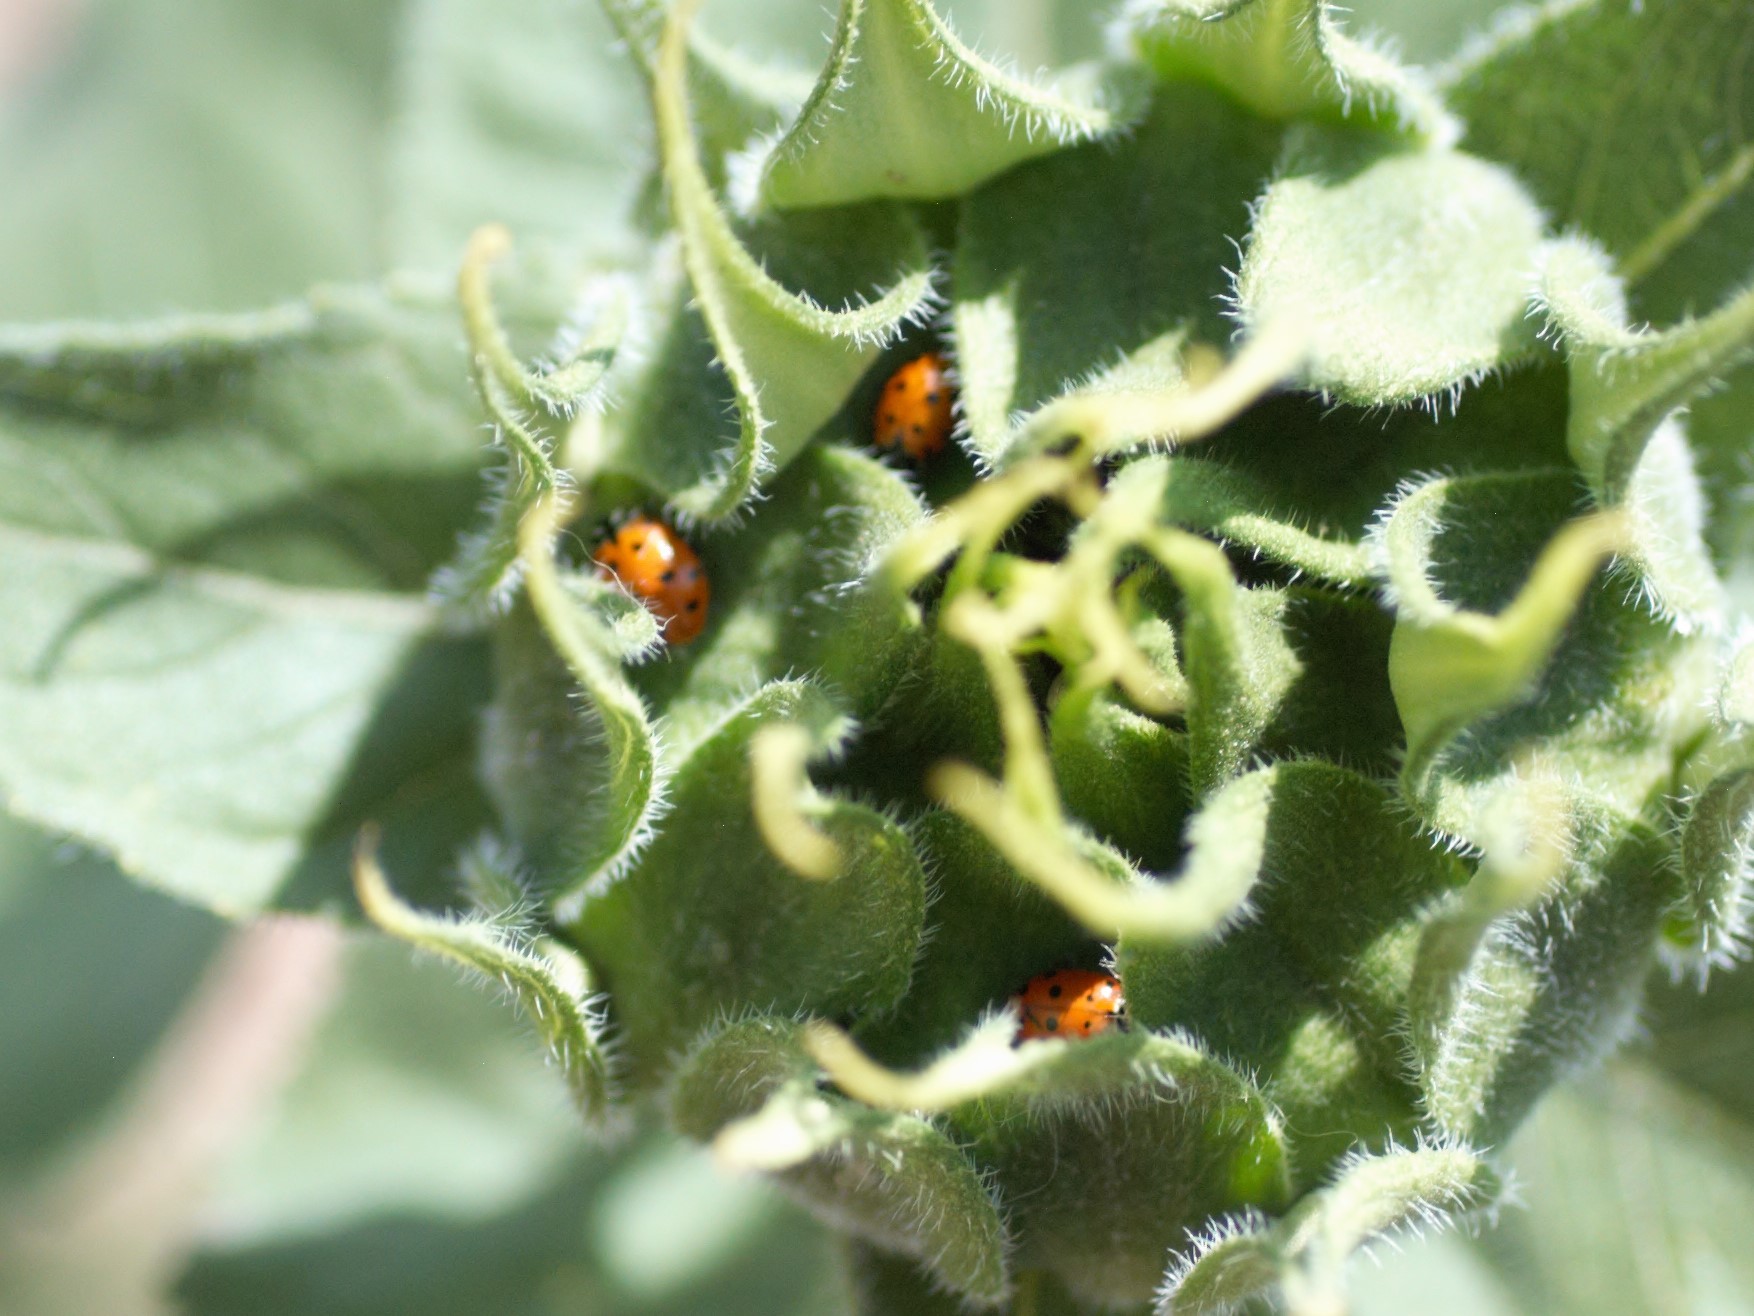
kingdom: Animalia
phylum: Arthropoda
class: Insecta
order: Coleoptera
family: Coccinellidae
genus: Hippodamia
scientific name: Hippodamia convergens
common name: Convergent lady beetle
